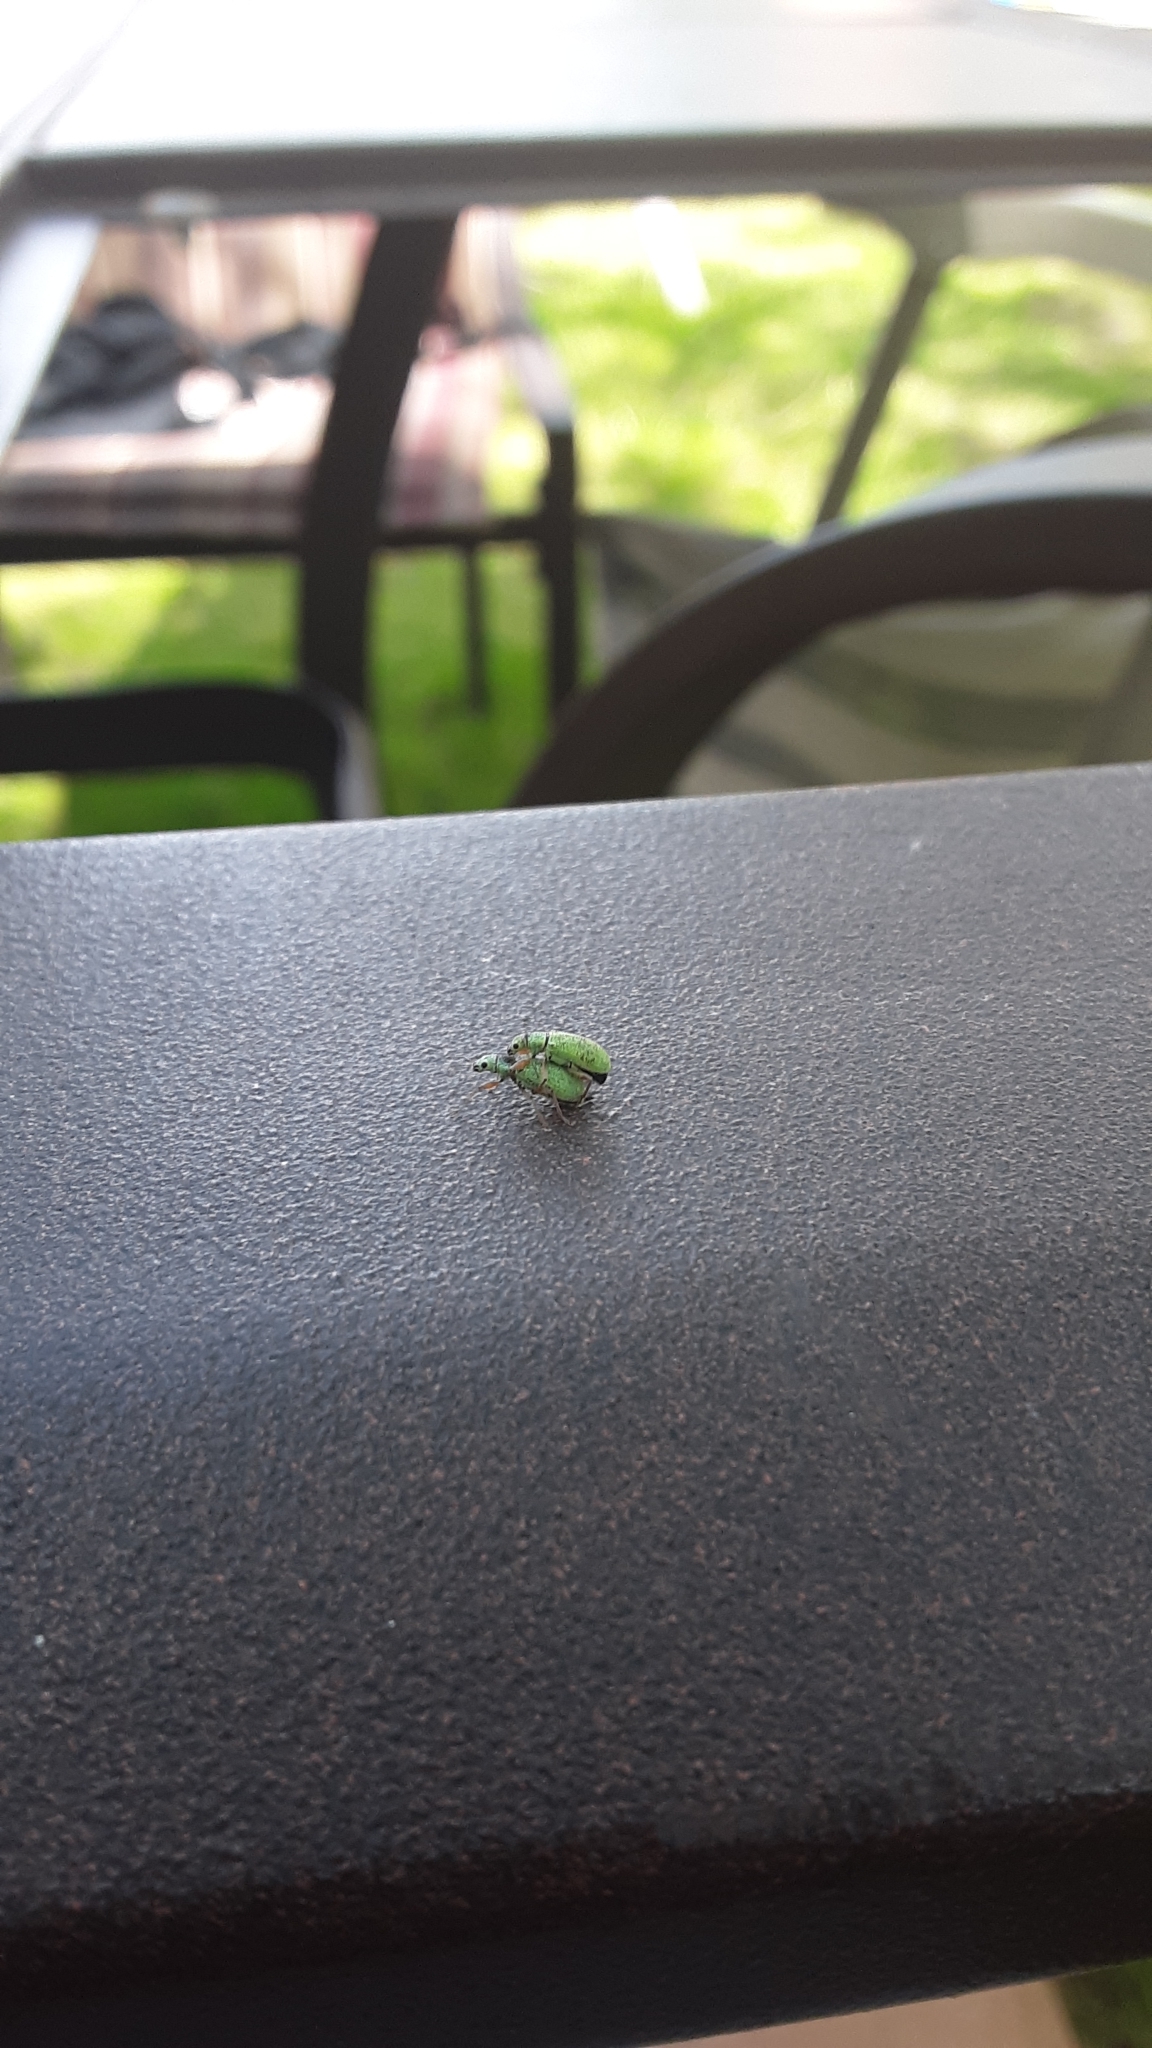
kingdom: Animalia
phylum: Arthropoda
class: Insecta
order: Coleoptera
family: Curculionidae
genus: Polydrusus
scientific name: Polydrusus impressifrons
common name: Weevil
